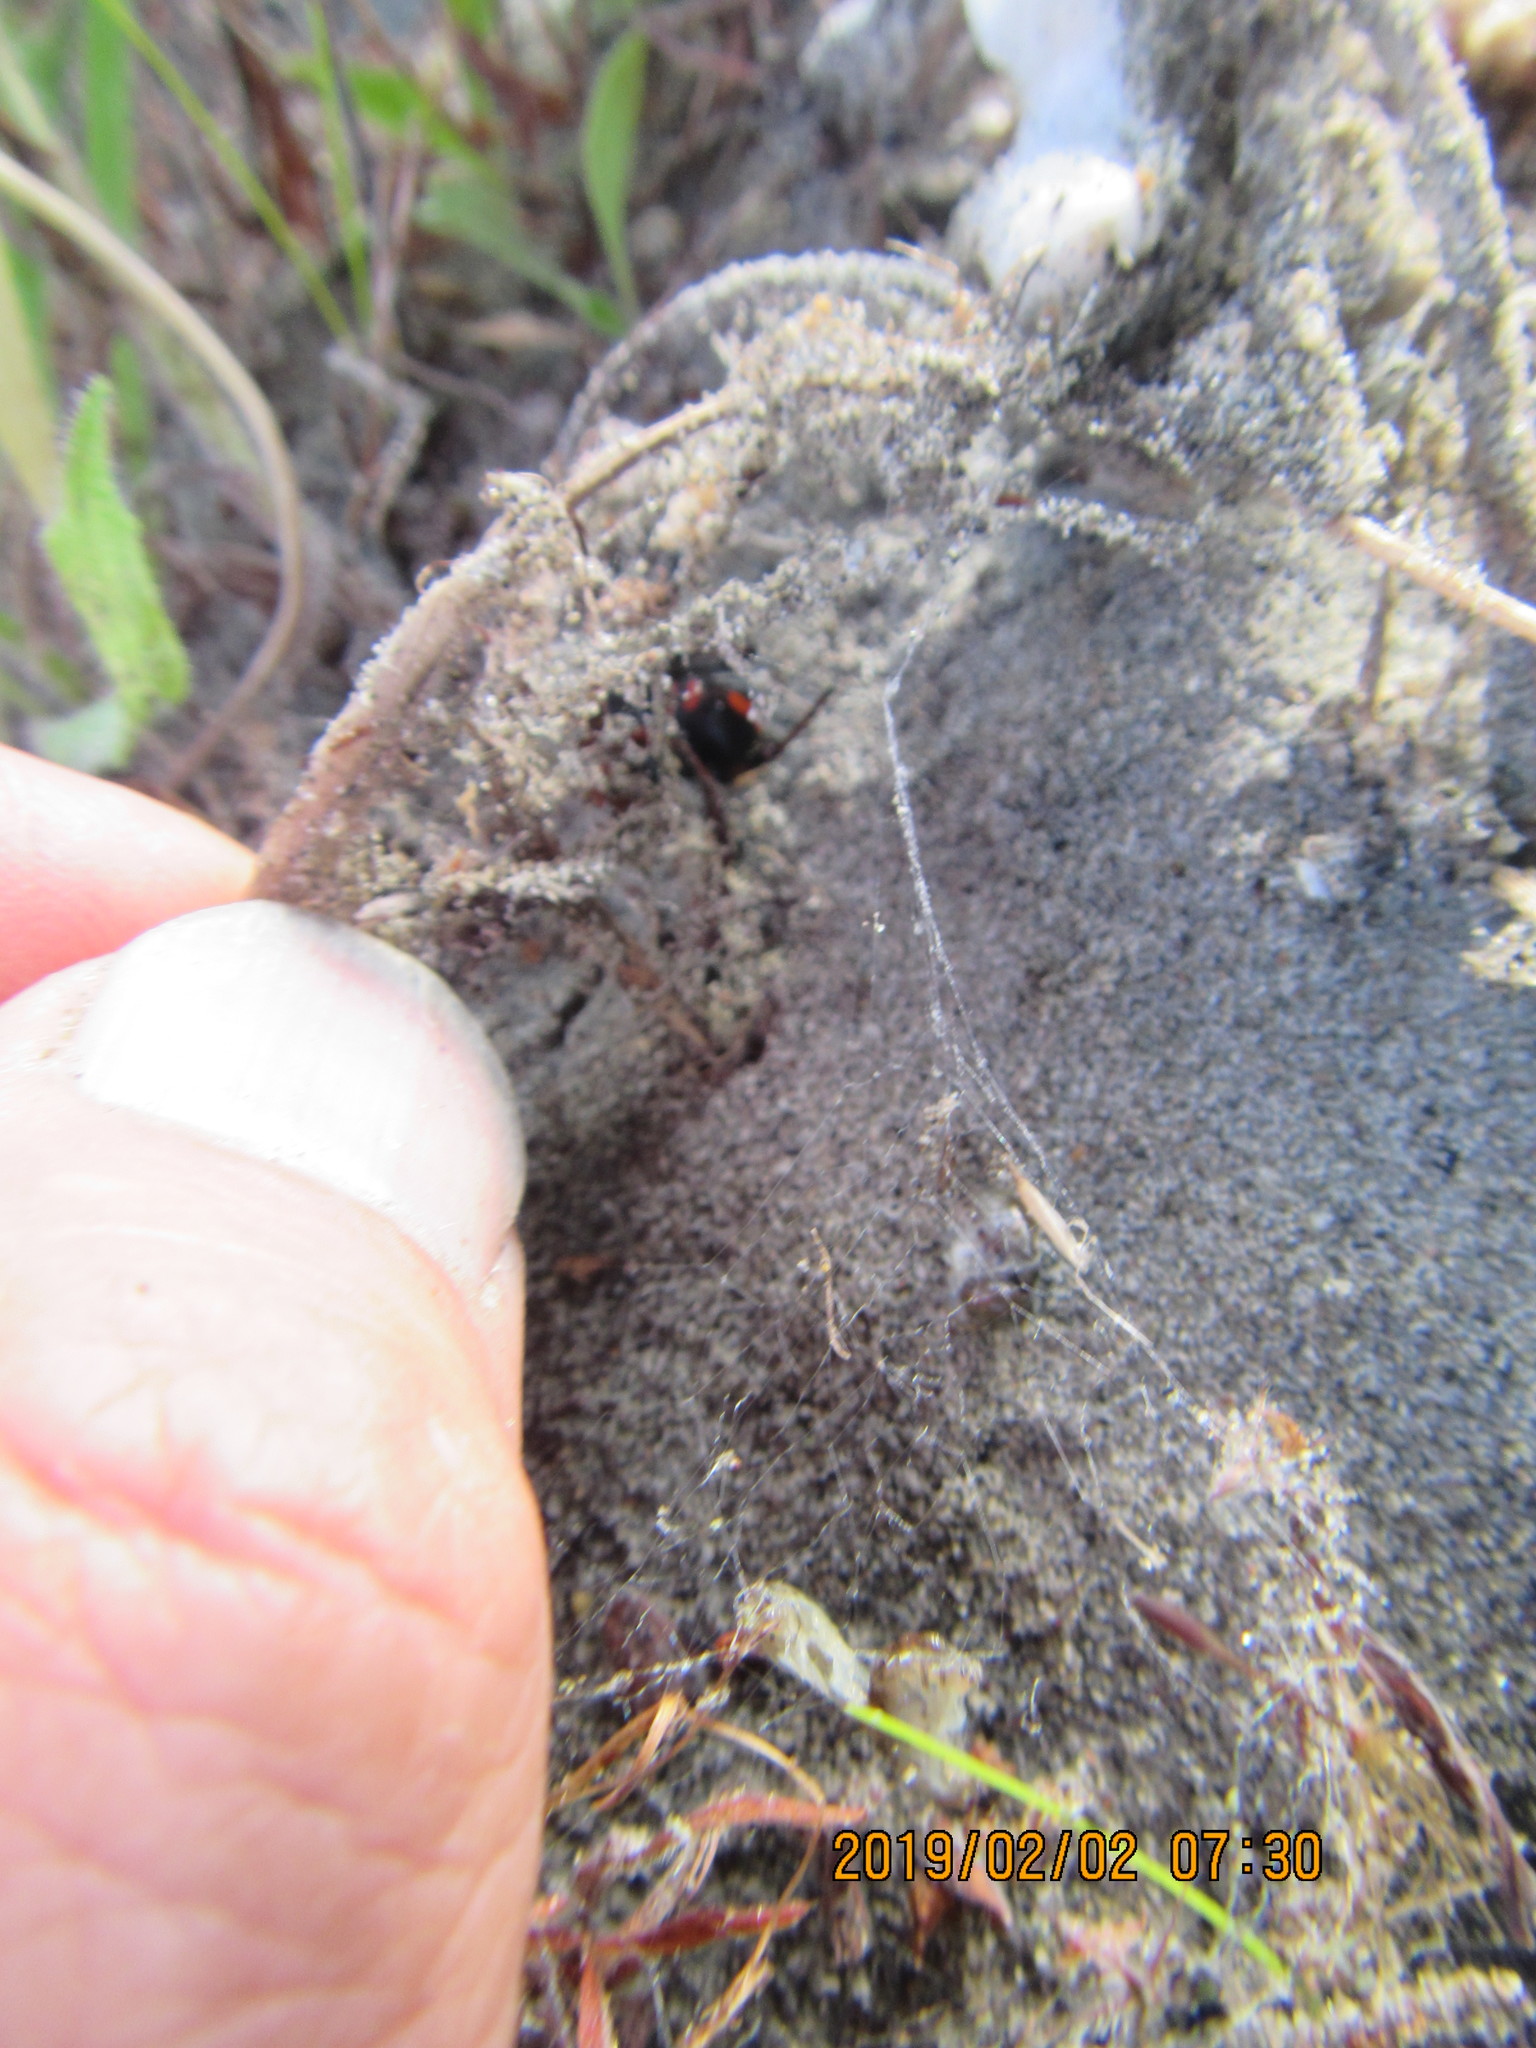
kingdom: Animalia
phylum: Arthropoda
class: Arachnida
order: Araneae
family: Theridiidae
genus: Latrodectus
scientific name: Latrodectus katipo
